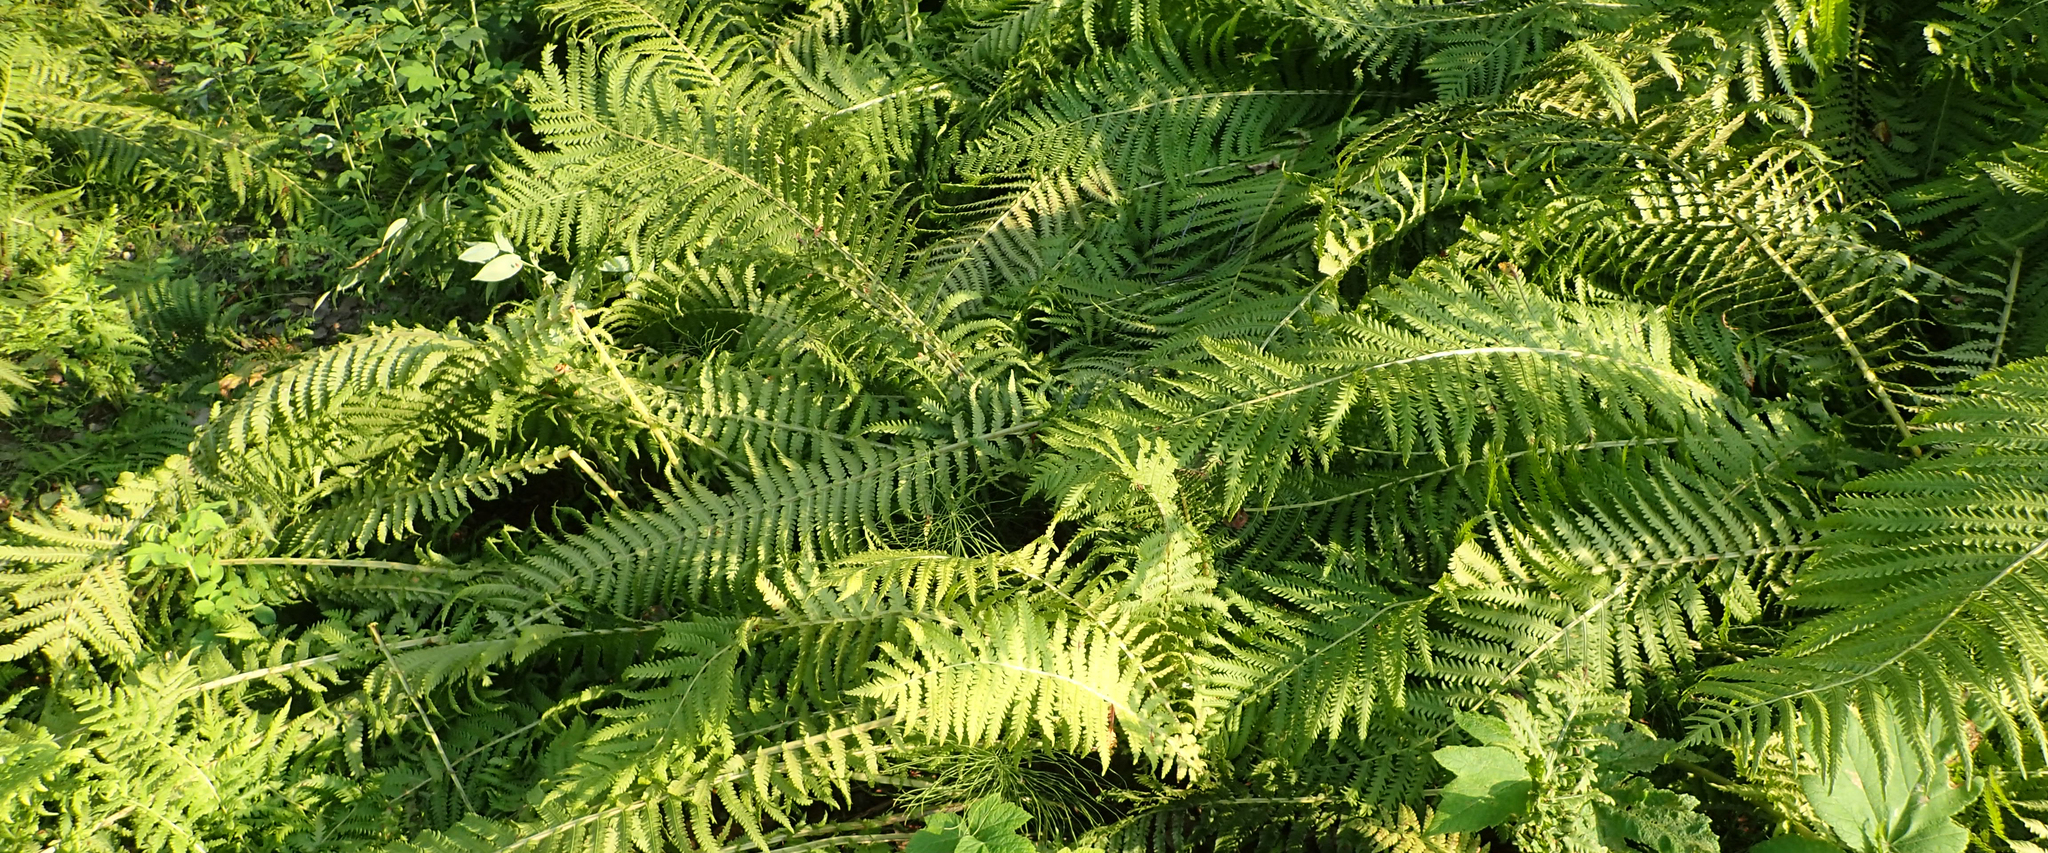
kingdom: Plantae
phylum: Tracheophyta
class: Polypodiopsida
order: Polypodiales
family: Onocleaceae
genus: Matteuccia
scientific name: Matteuccia struthiopteris
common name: Ostrich fern
